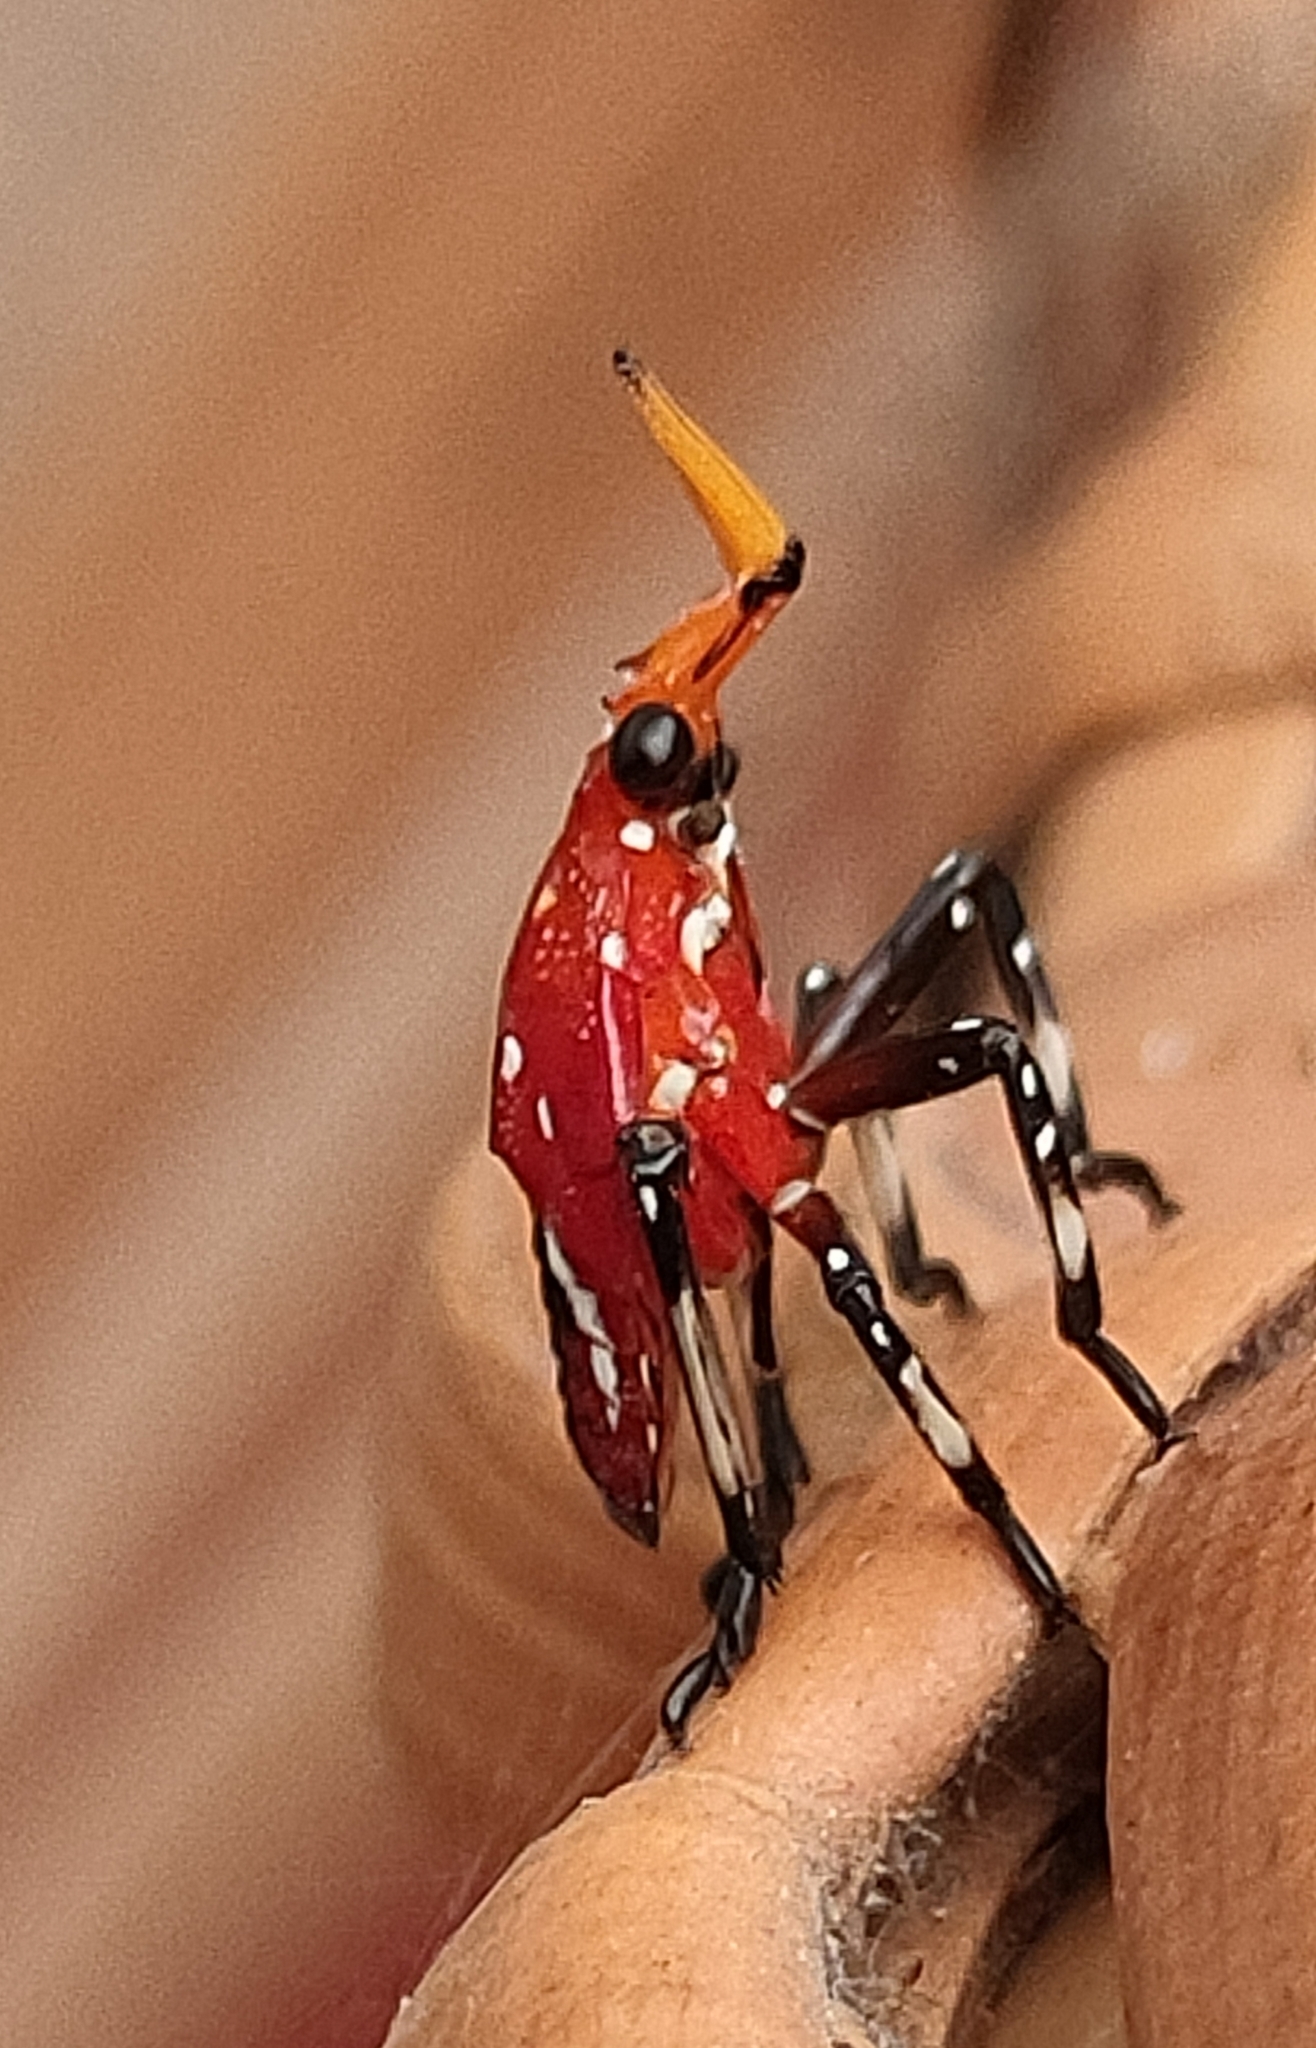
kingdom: Animalia
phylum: Arthropoda
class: Insecta
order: Hemiptera
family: Fulgoridae
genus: Kalidasa
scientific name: Kalidasa lanata
